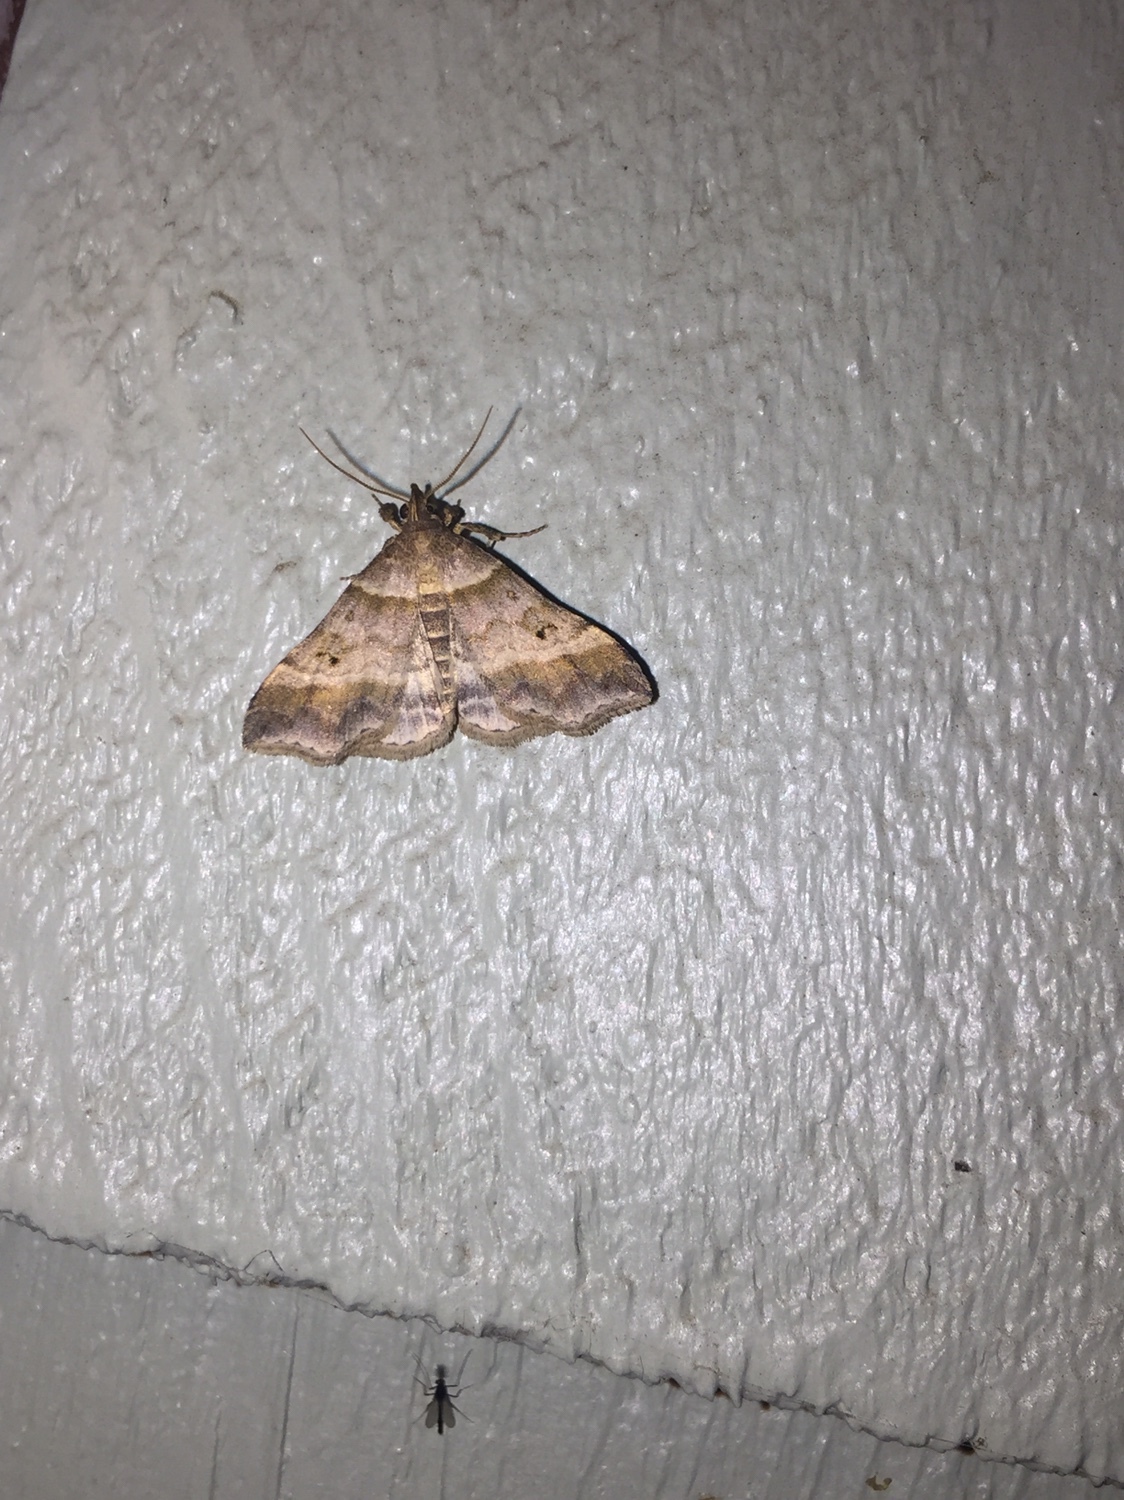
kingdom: Animalia
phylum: Arthropoda
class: Insecta
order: Lepidoptera
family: Erebidae
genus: Phaeolita
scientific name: Phaeolita pyramusalis
